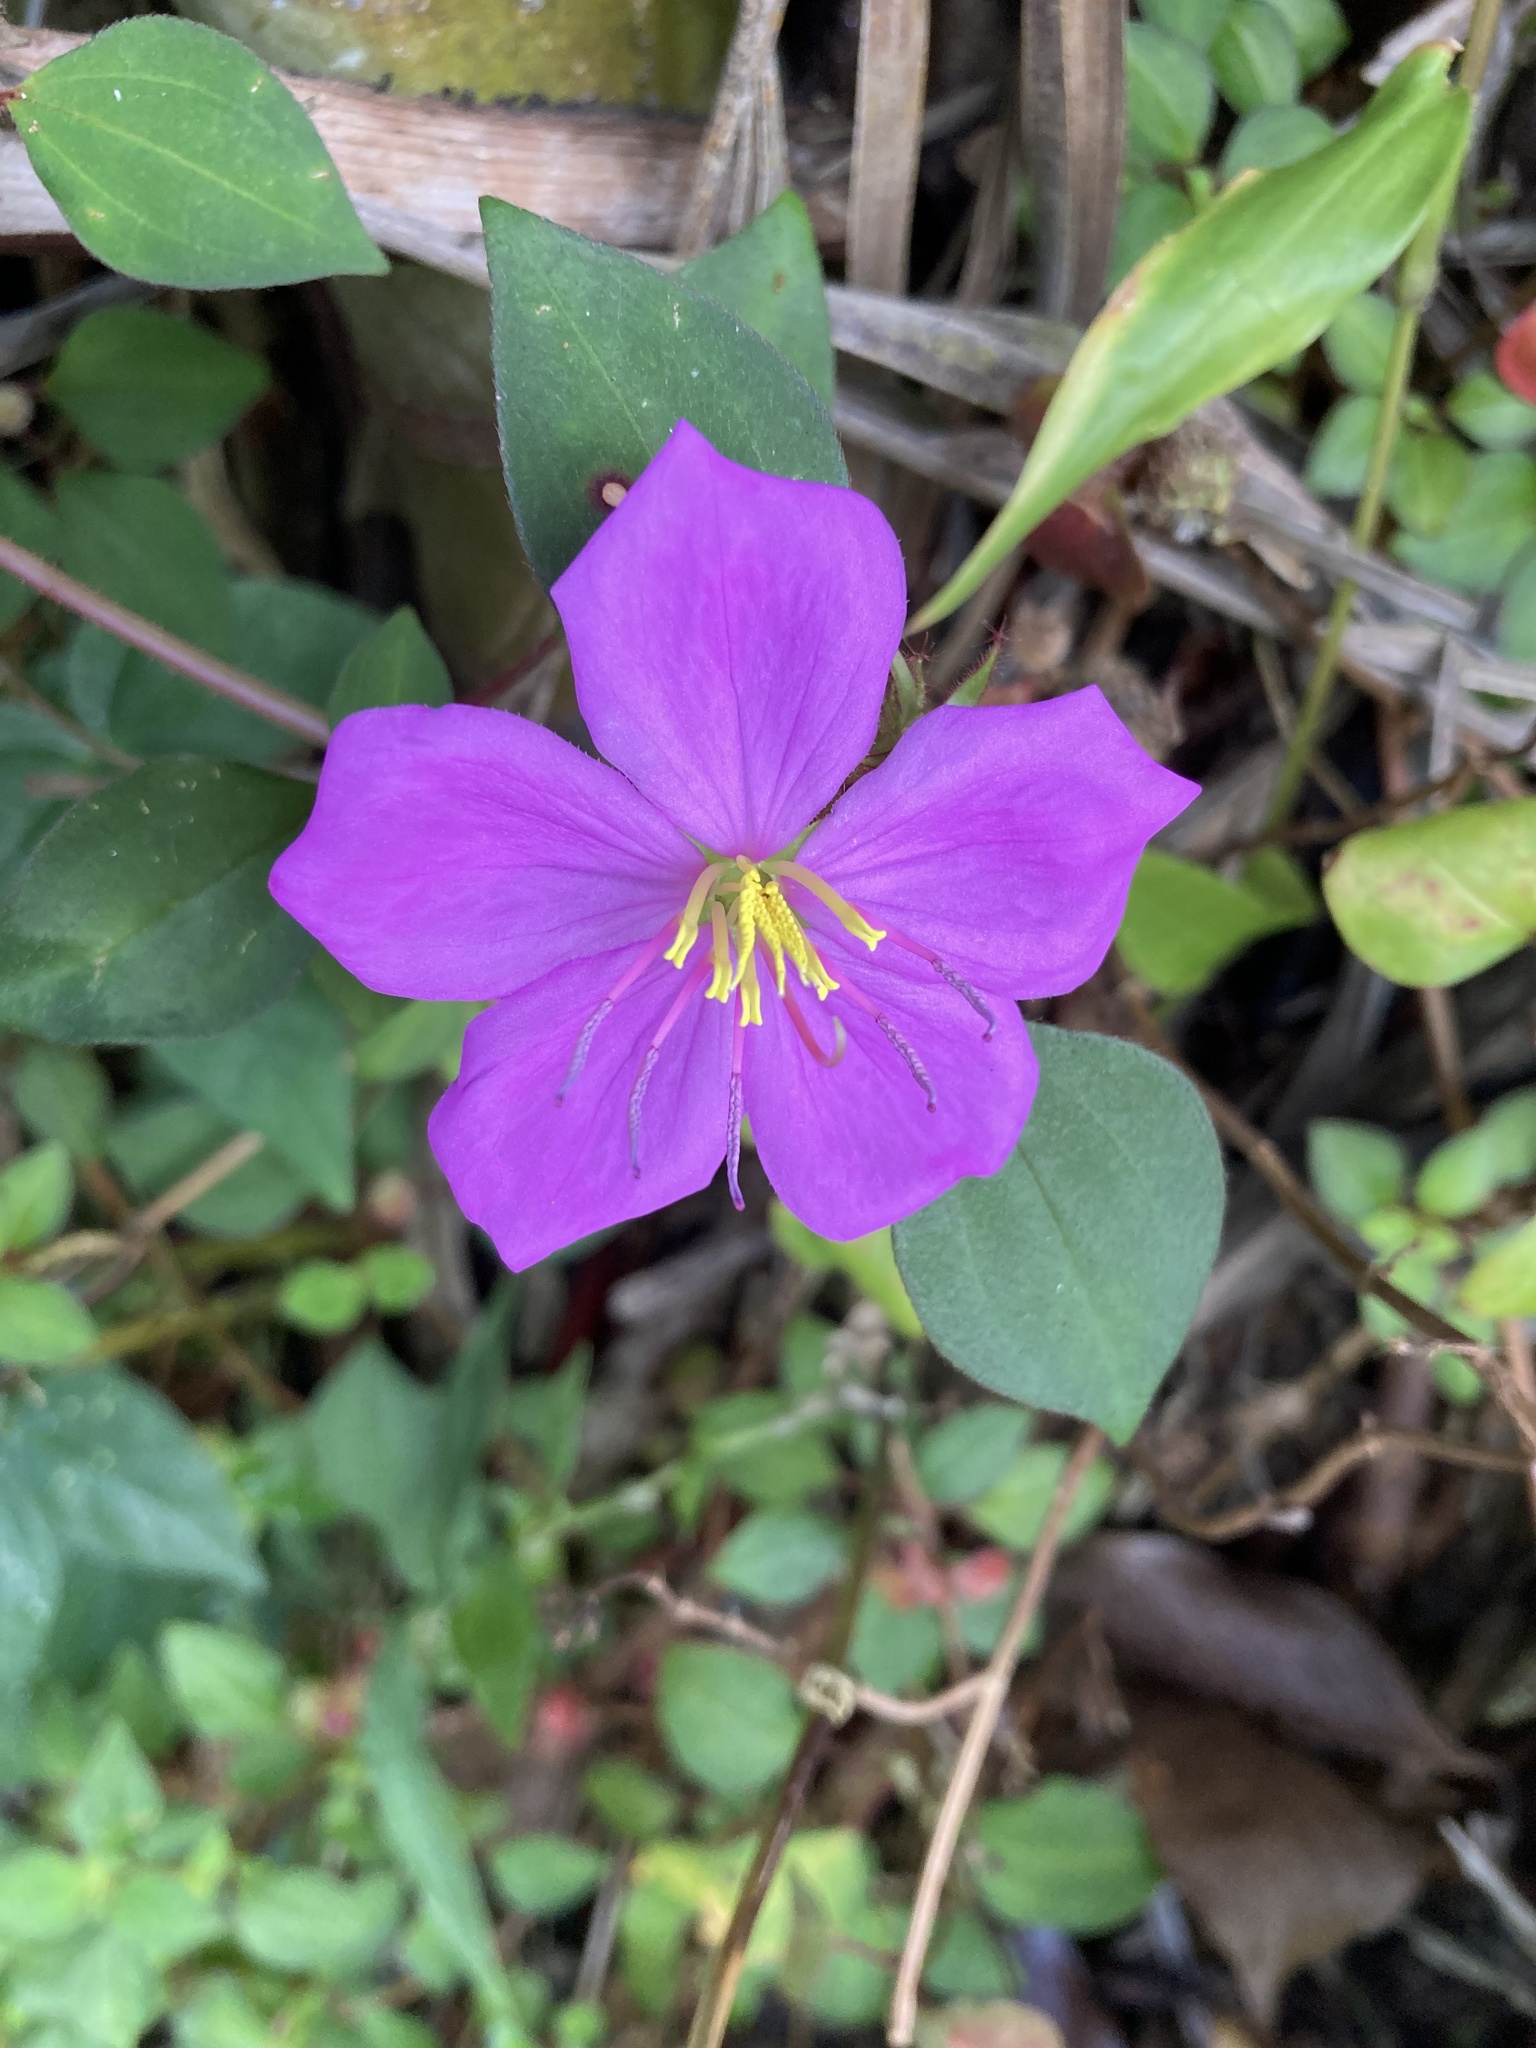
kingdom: Plantae
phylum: Tracheophyta
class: Magnoliopsida
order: Myrtales
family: Melastomataceae
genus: Heterotis
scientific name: Heterotis rotundifolia
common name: Pinklady
